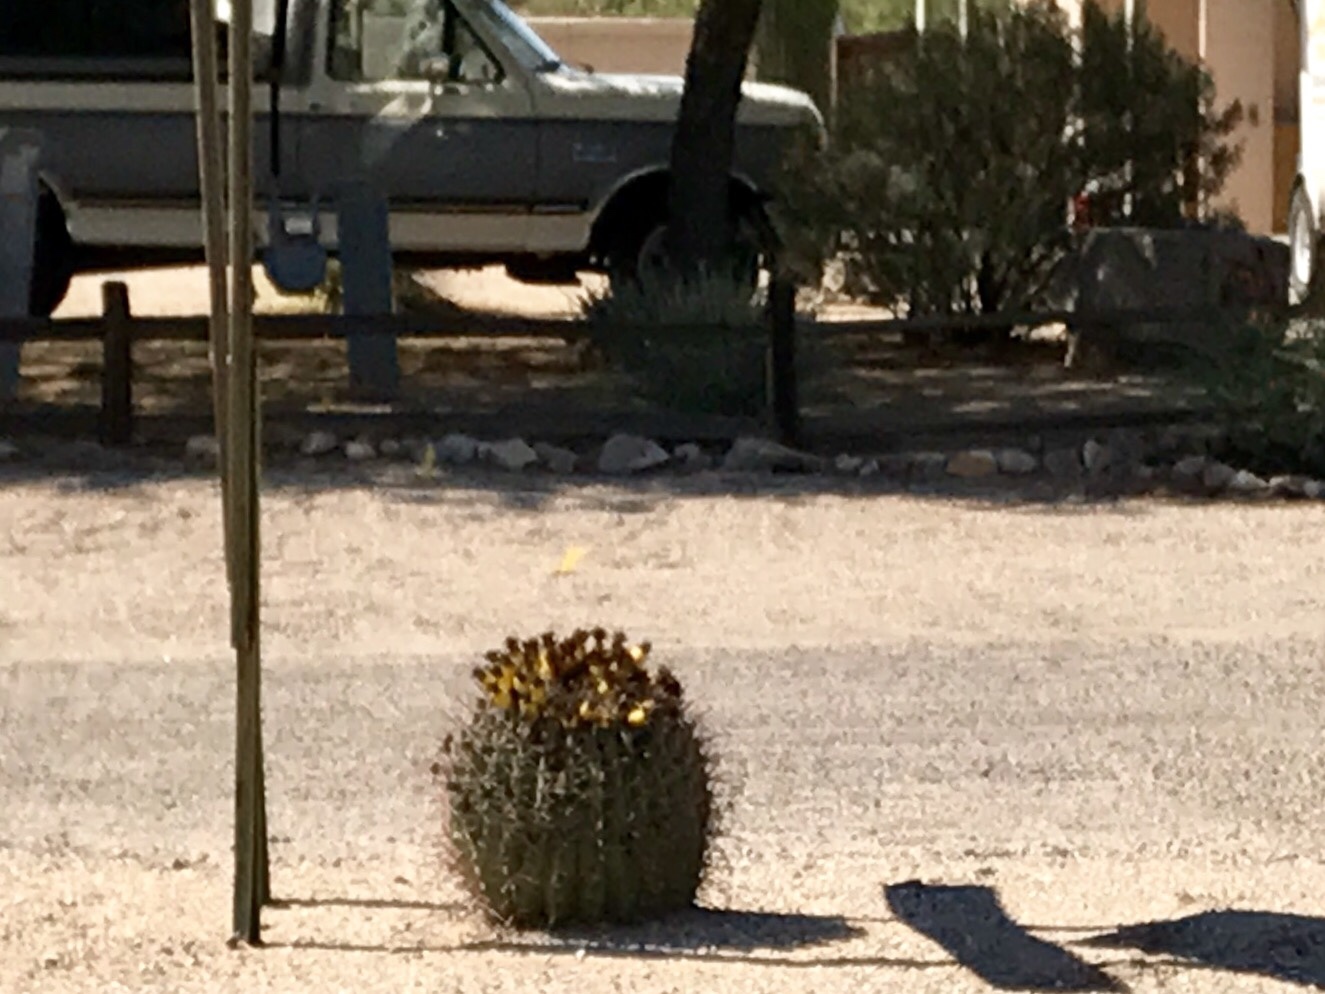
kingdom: Plantae
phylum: Tracheophyta
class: Magnoliopsida
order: Caryophyllales
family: Cactaceae
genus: Ferocactus
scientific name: Ferocactus wislizeni
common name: Candy barrel cactus
